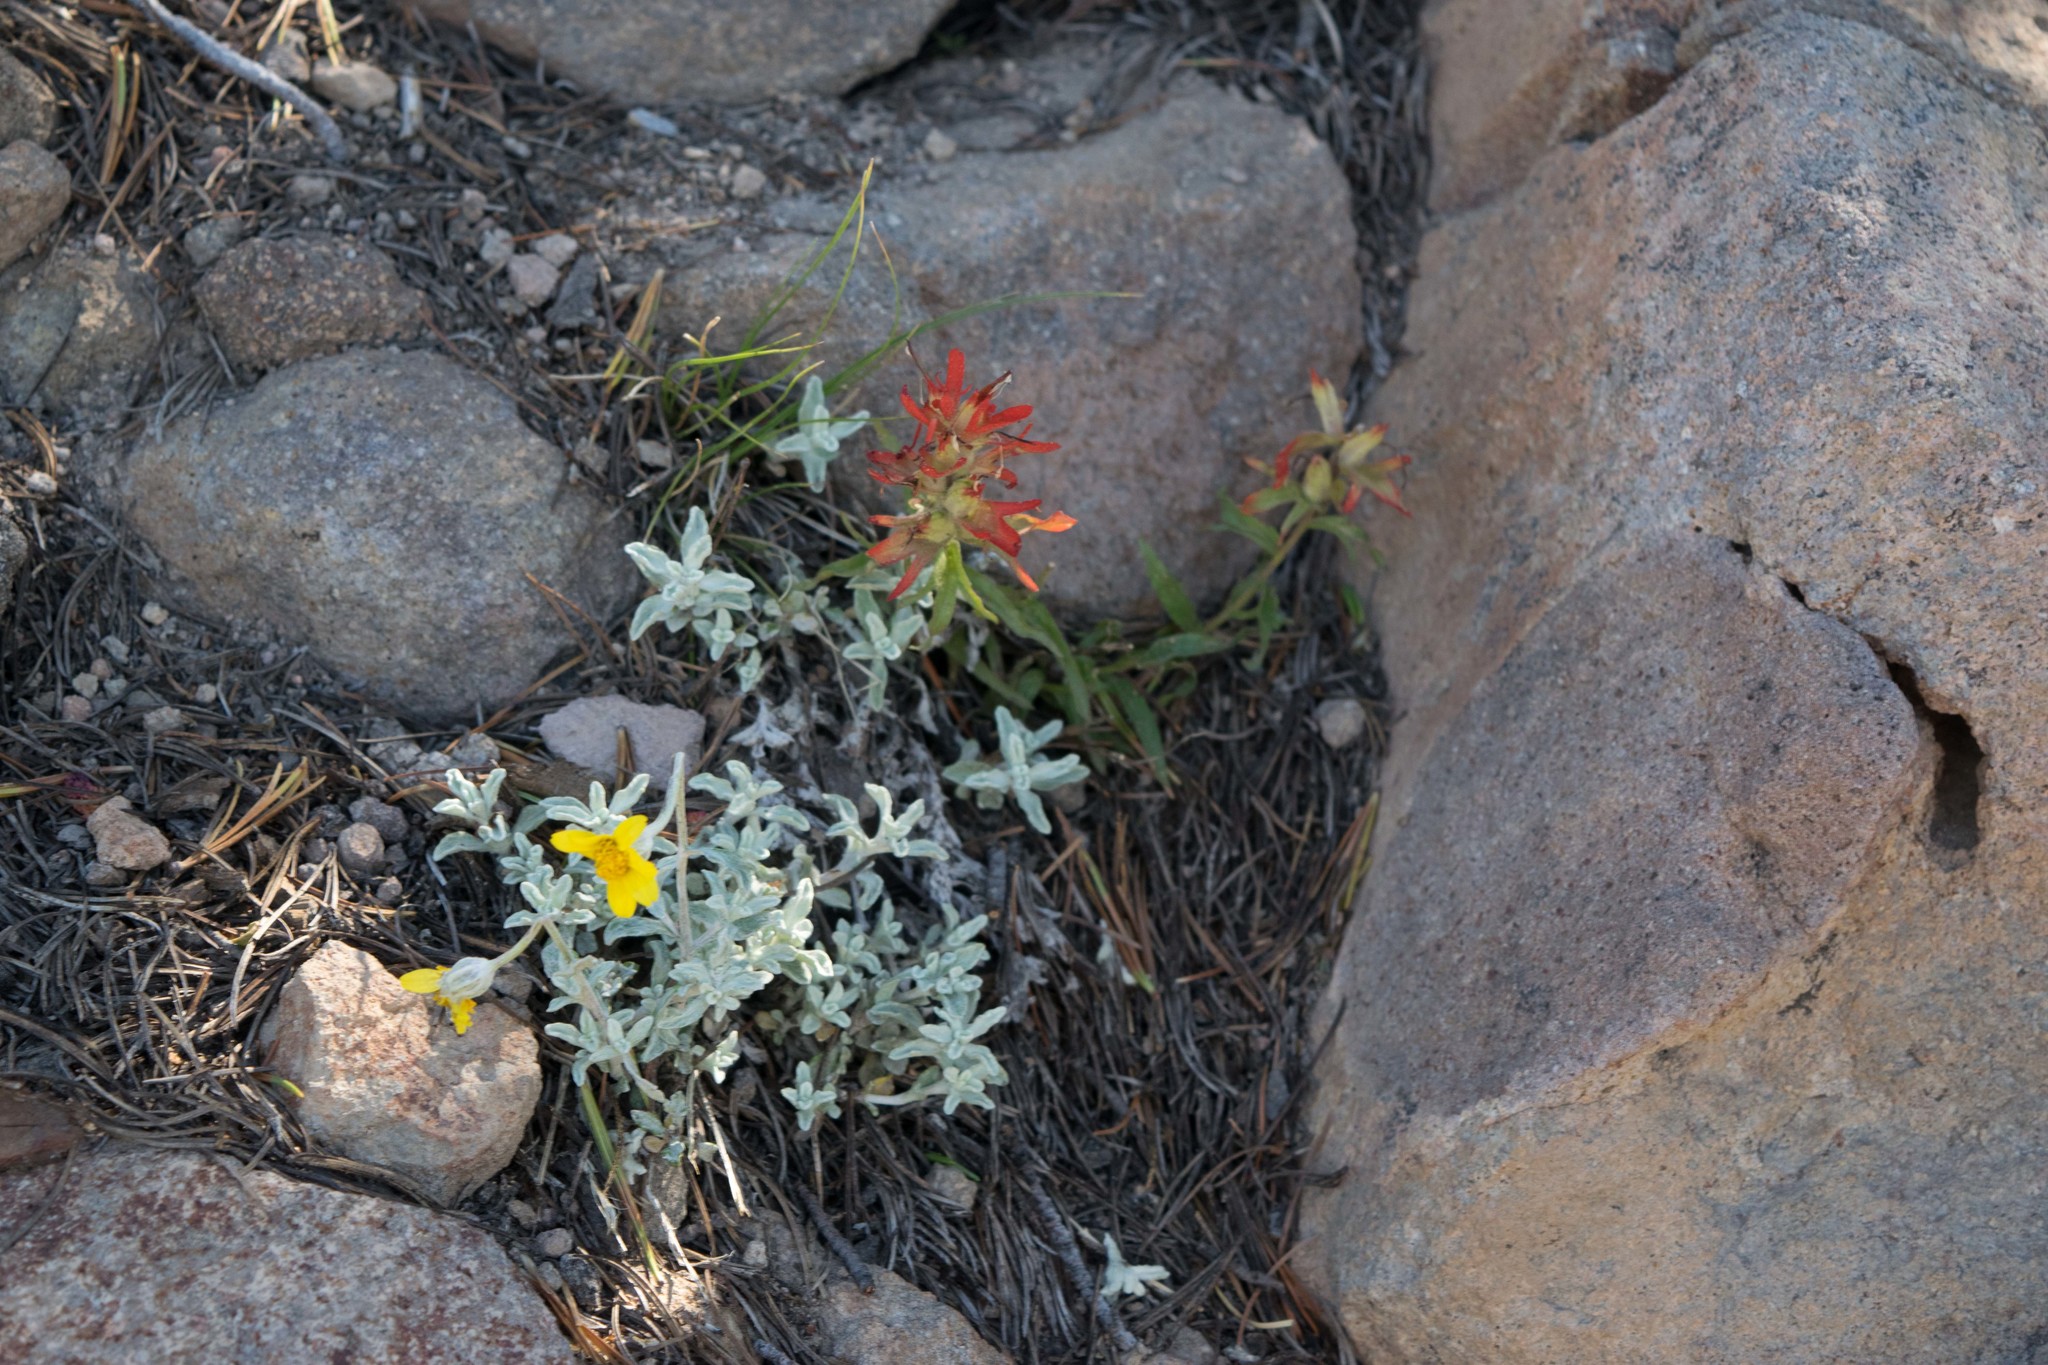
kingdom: Plantae
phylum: Tracheophyta
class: Magnoliopsida
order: Asterales
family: Asteraceae
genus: Eriophyllum
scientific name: Eriophyllum lanatum
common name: Common woolly-sunflower
